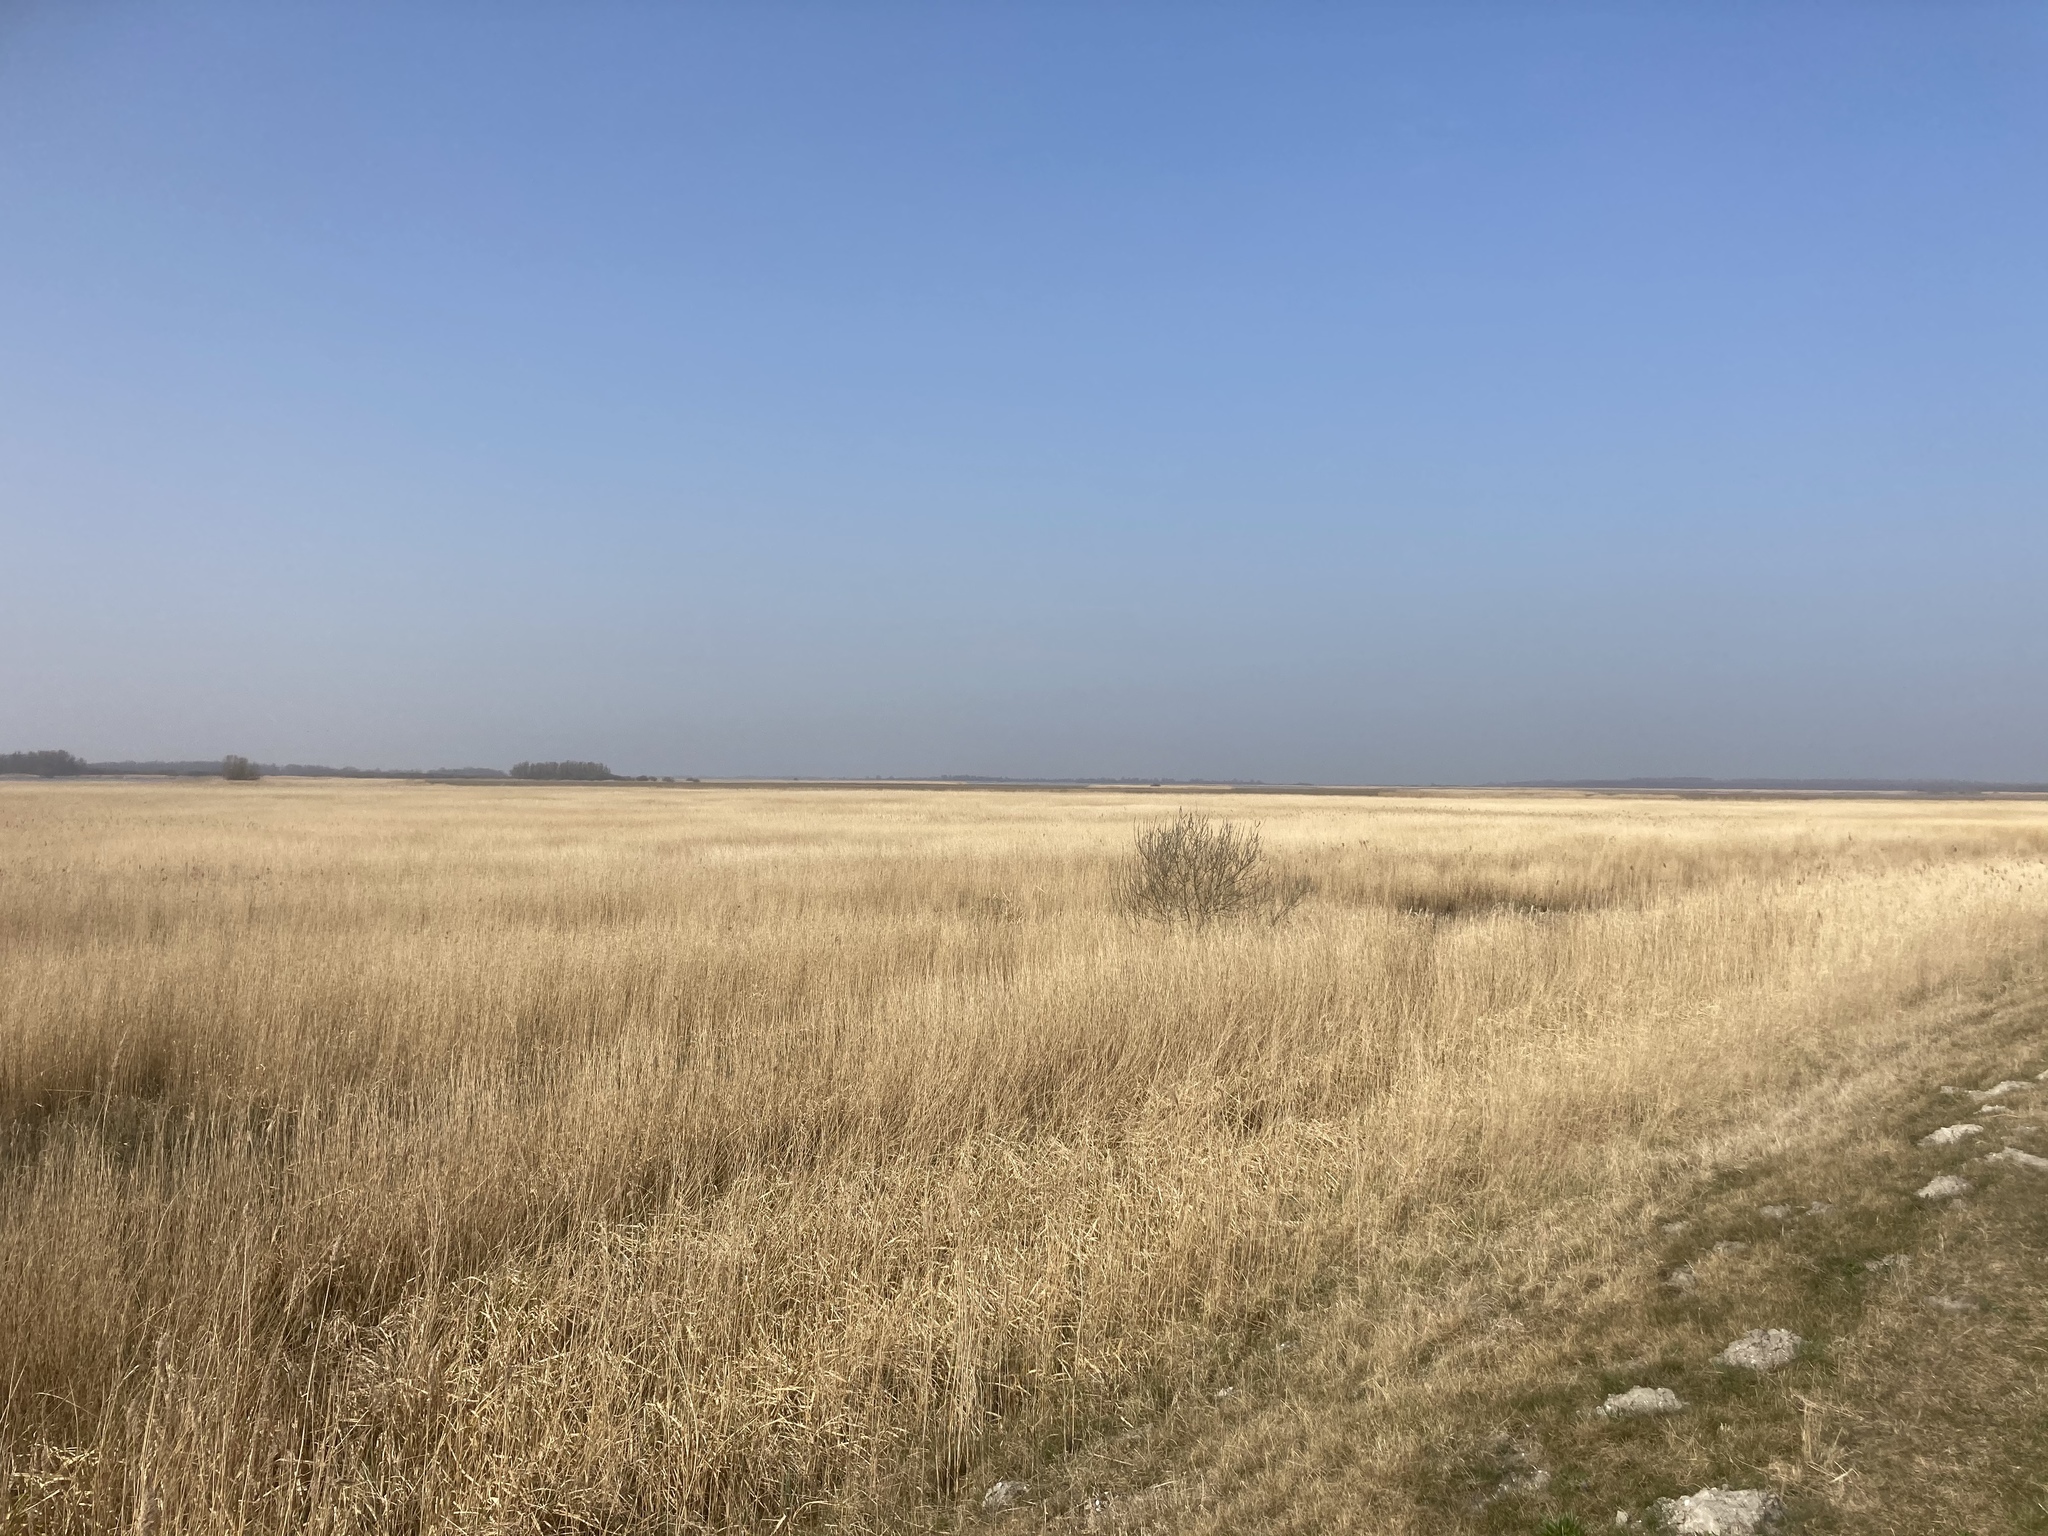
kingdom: Plantae
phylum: Tracheophyta
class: Liliopsida
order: Poales
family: Poaceae
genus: Phragmites
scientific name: Phragmites australis
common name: Common reed
